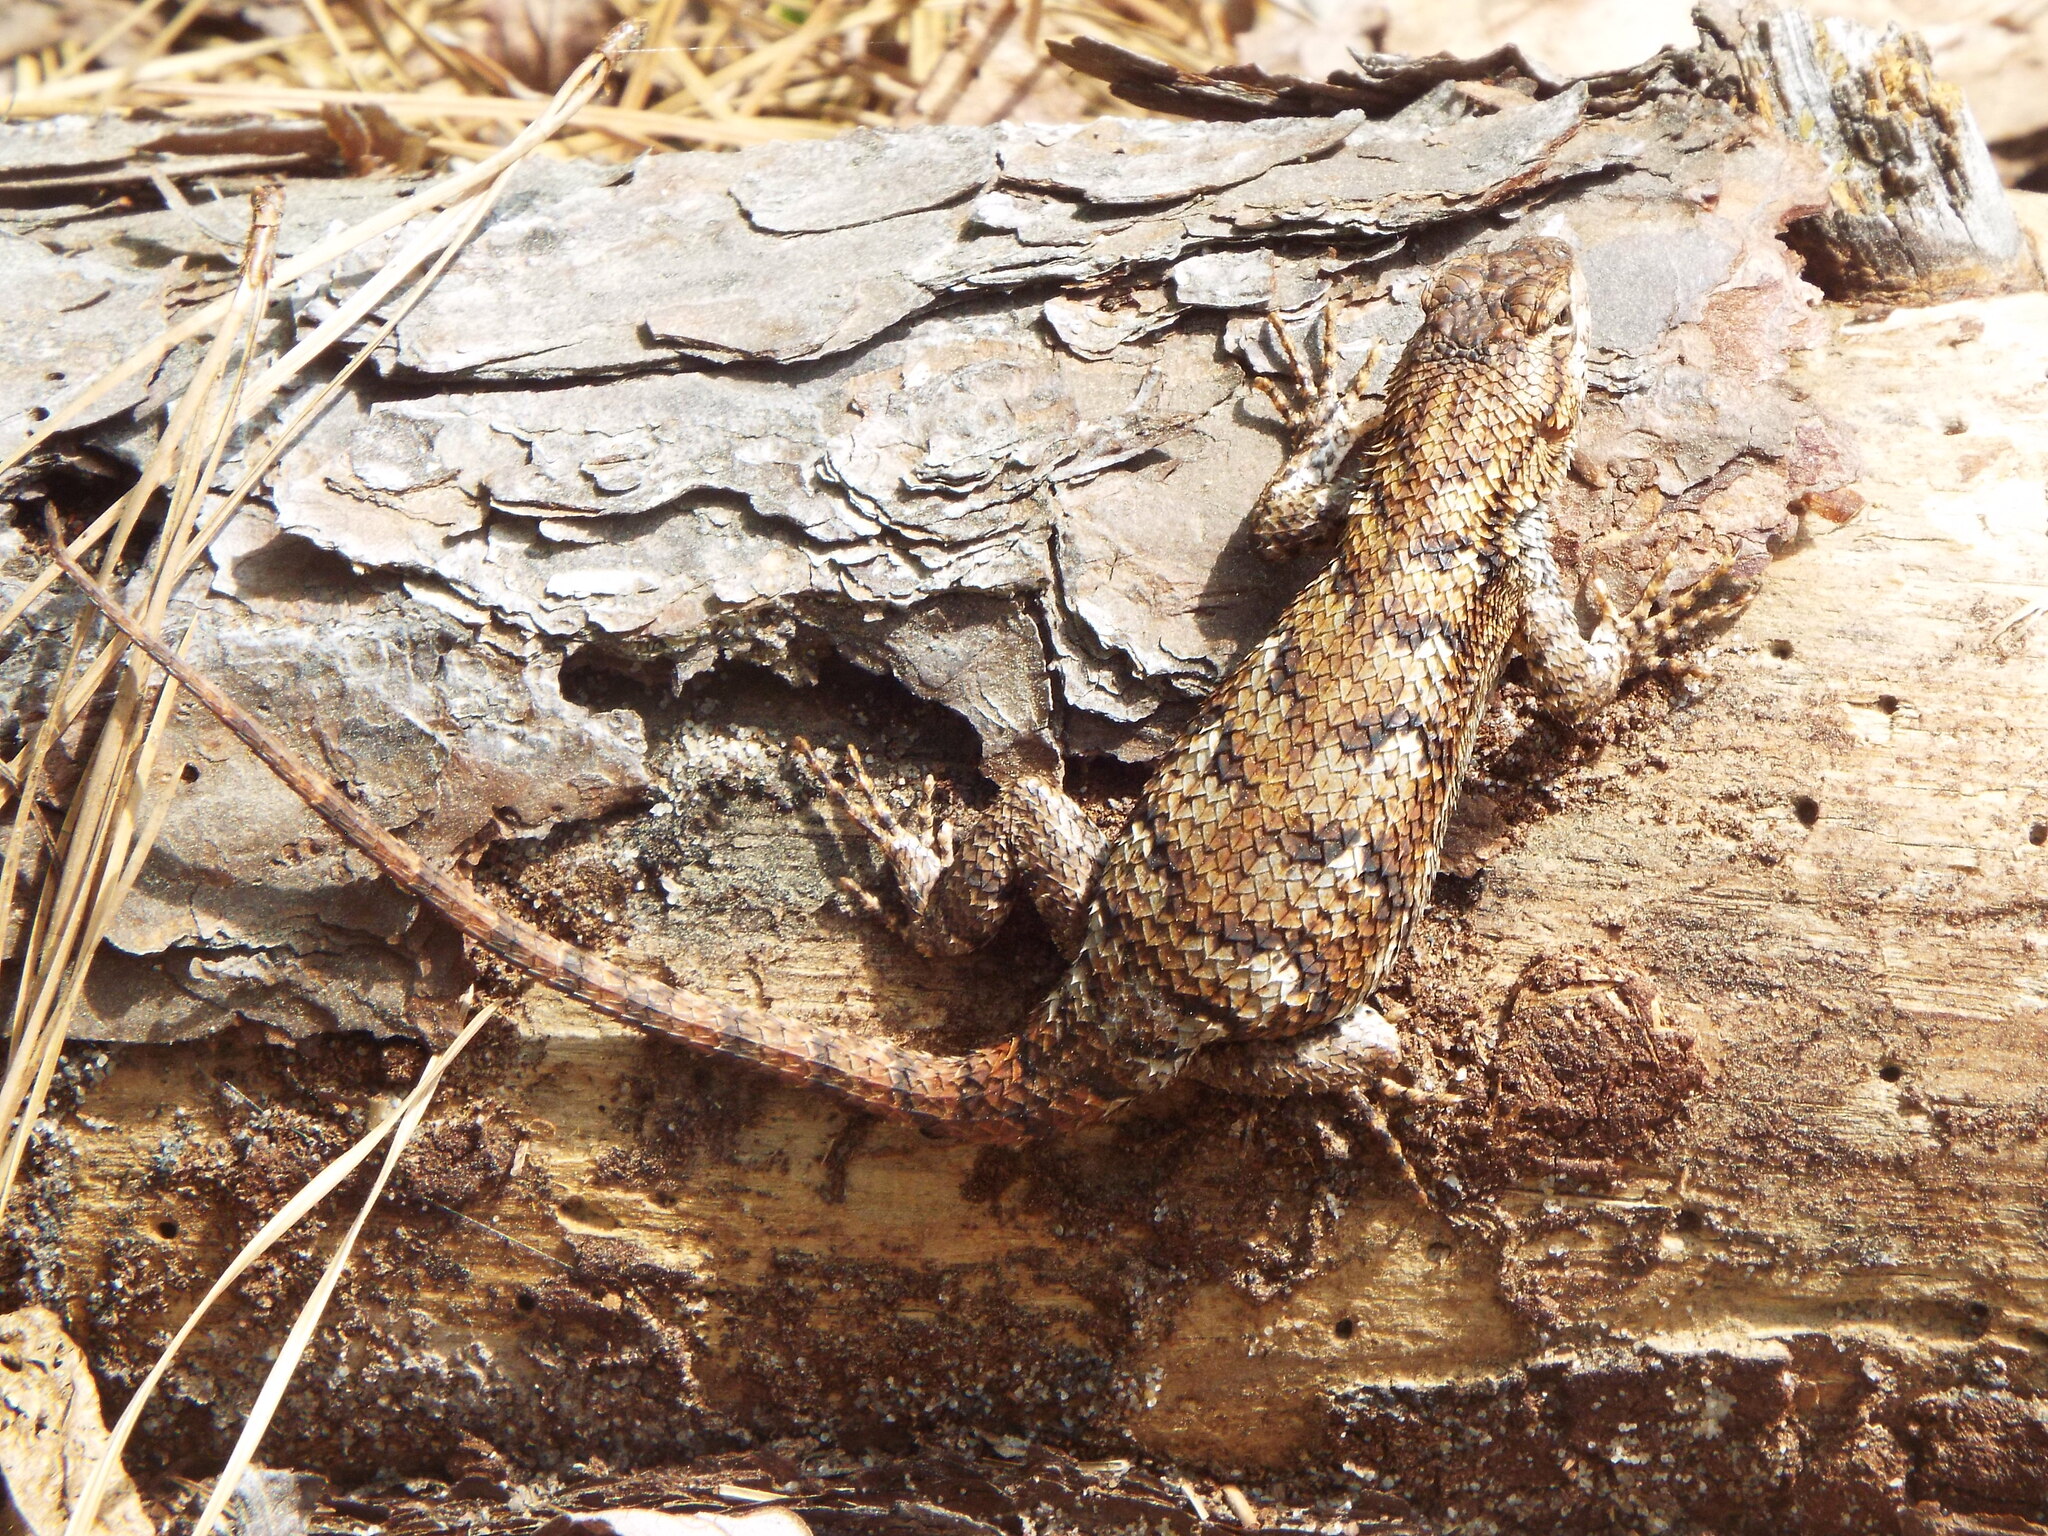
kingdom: Animalia
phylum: Chordata
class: Squamata
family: Phrynosomatidae
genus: Sceloporus
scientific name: Sceloporus undulatus
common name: Eastern fence lizard
